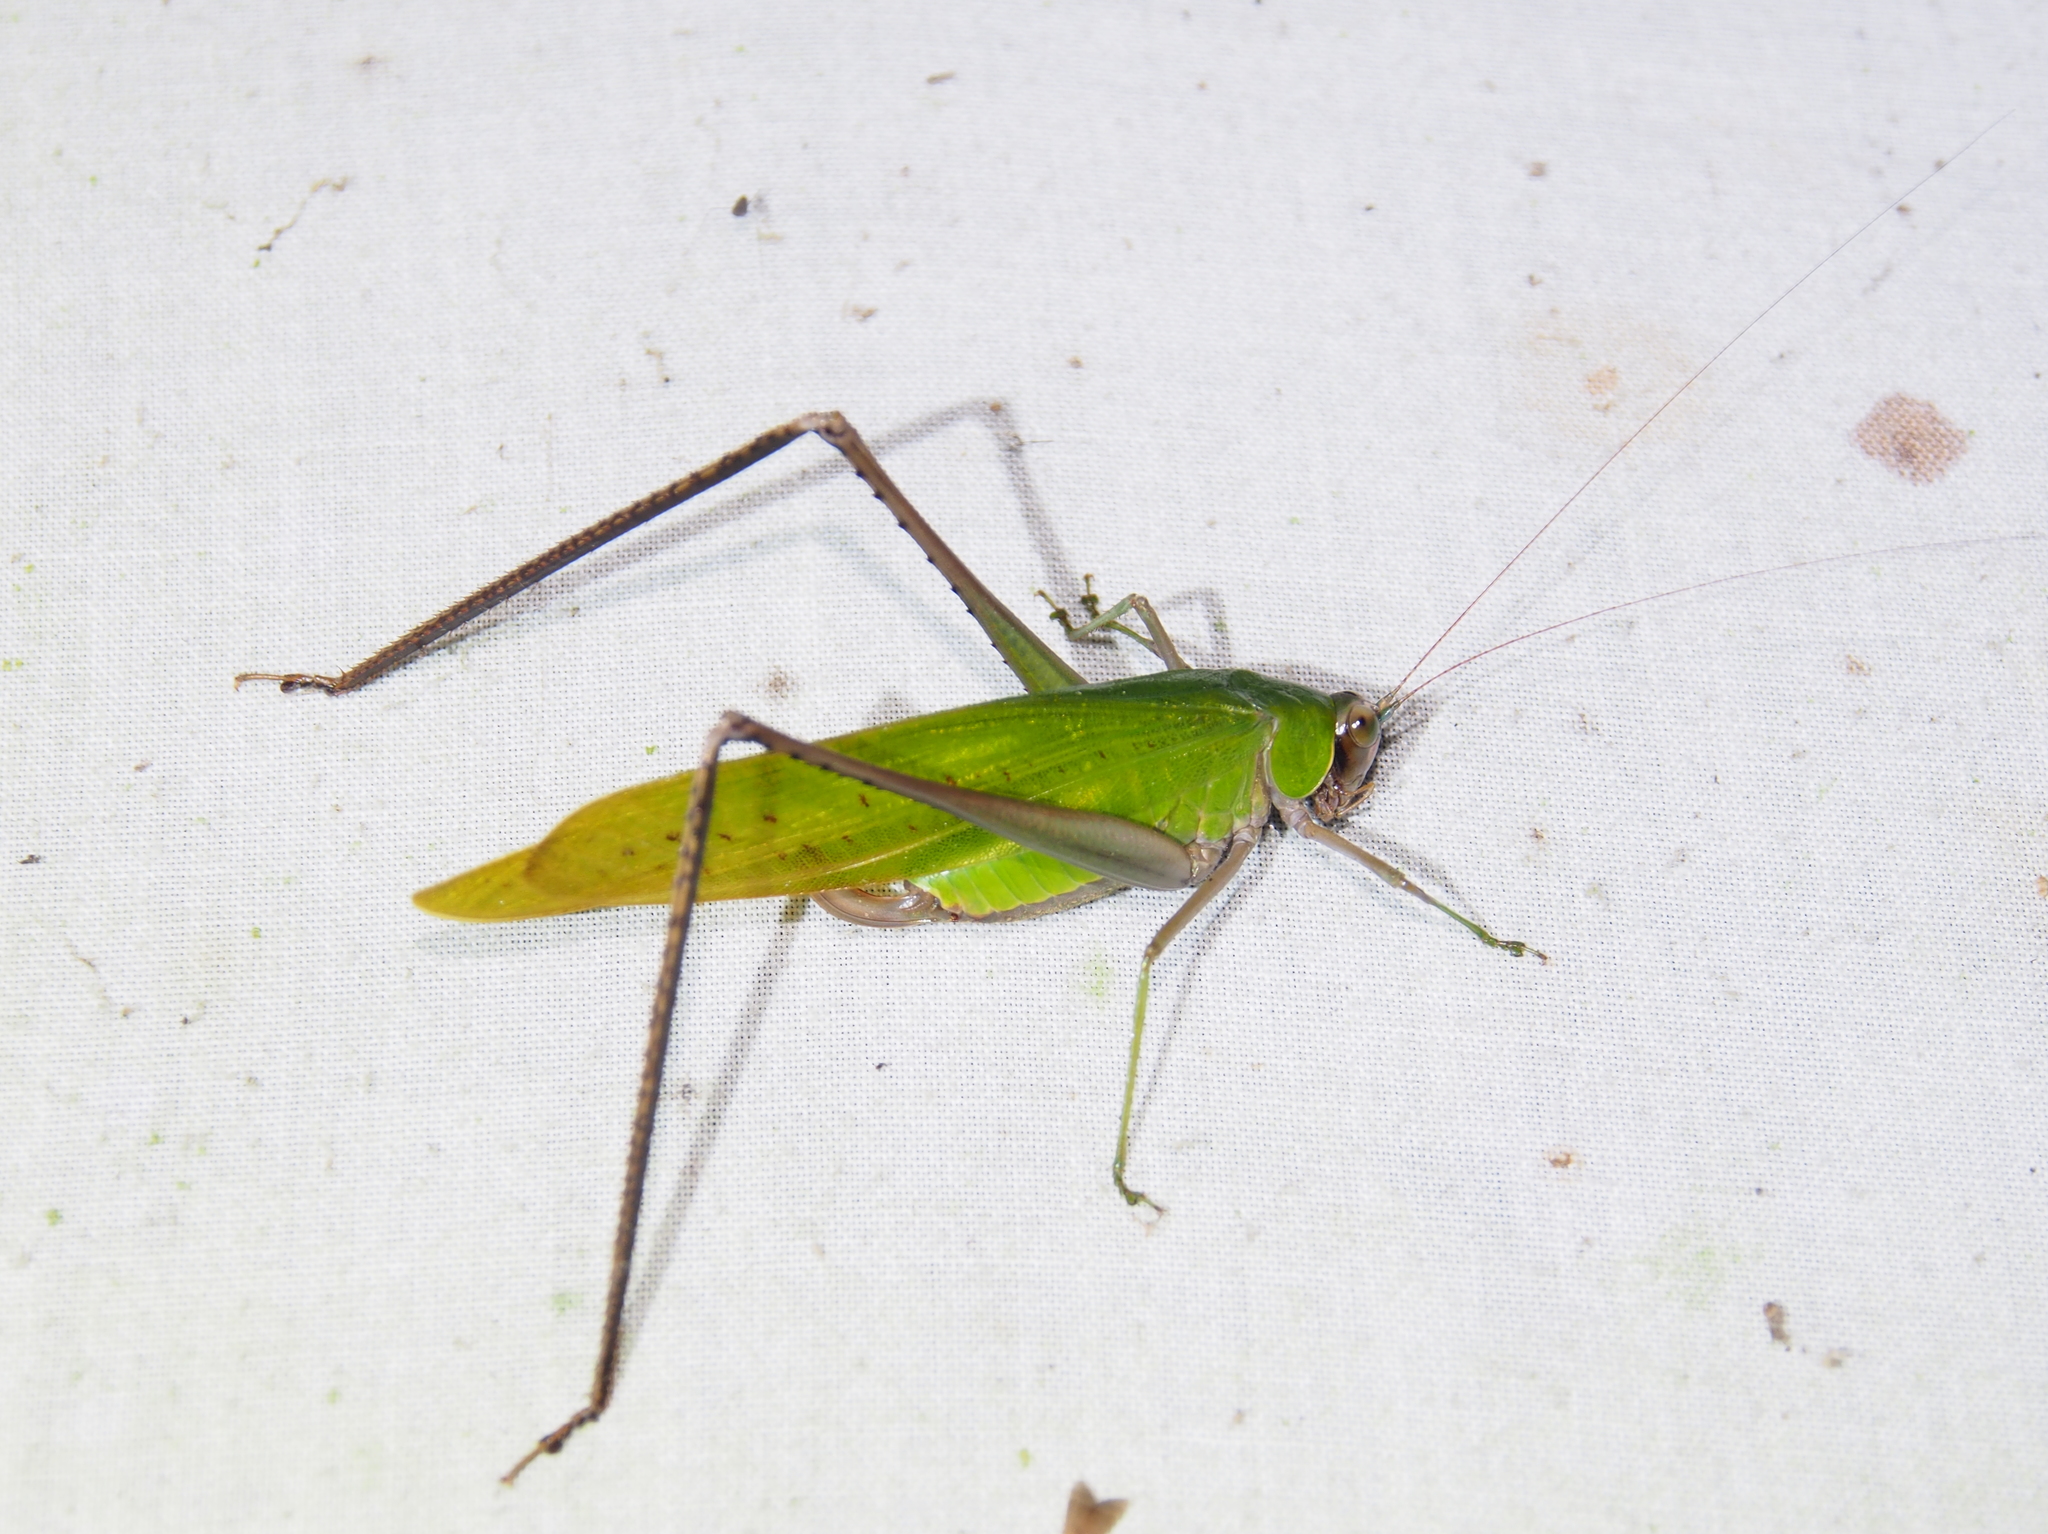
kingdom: Animalia
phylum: Arthropoda
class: Insecta
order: Orthoptera
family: Tettigoniidae
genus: Ceraia
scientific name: Ceraia tibialoides
